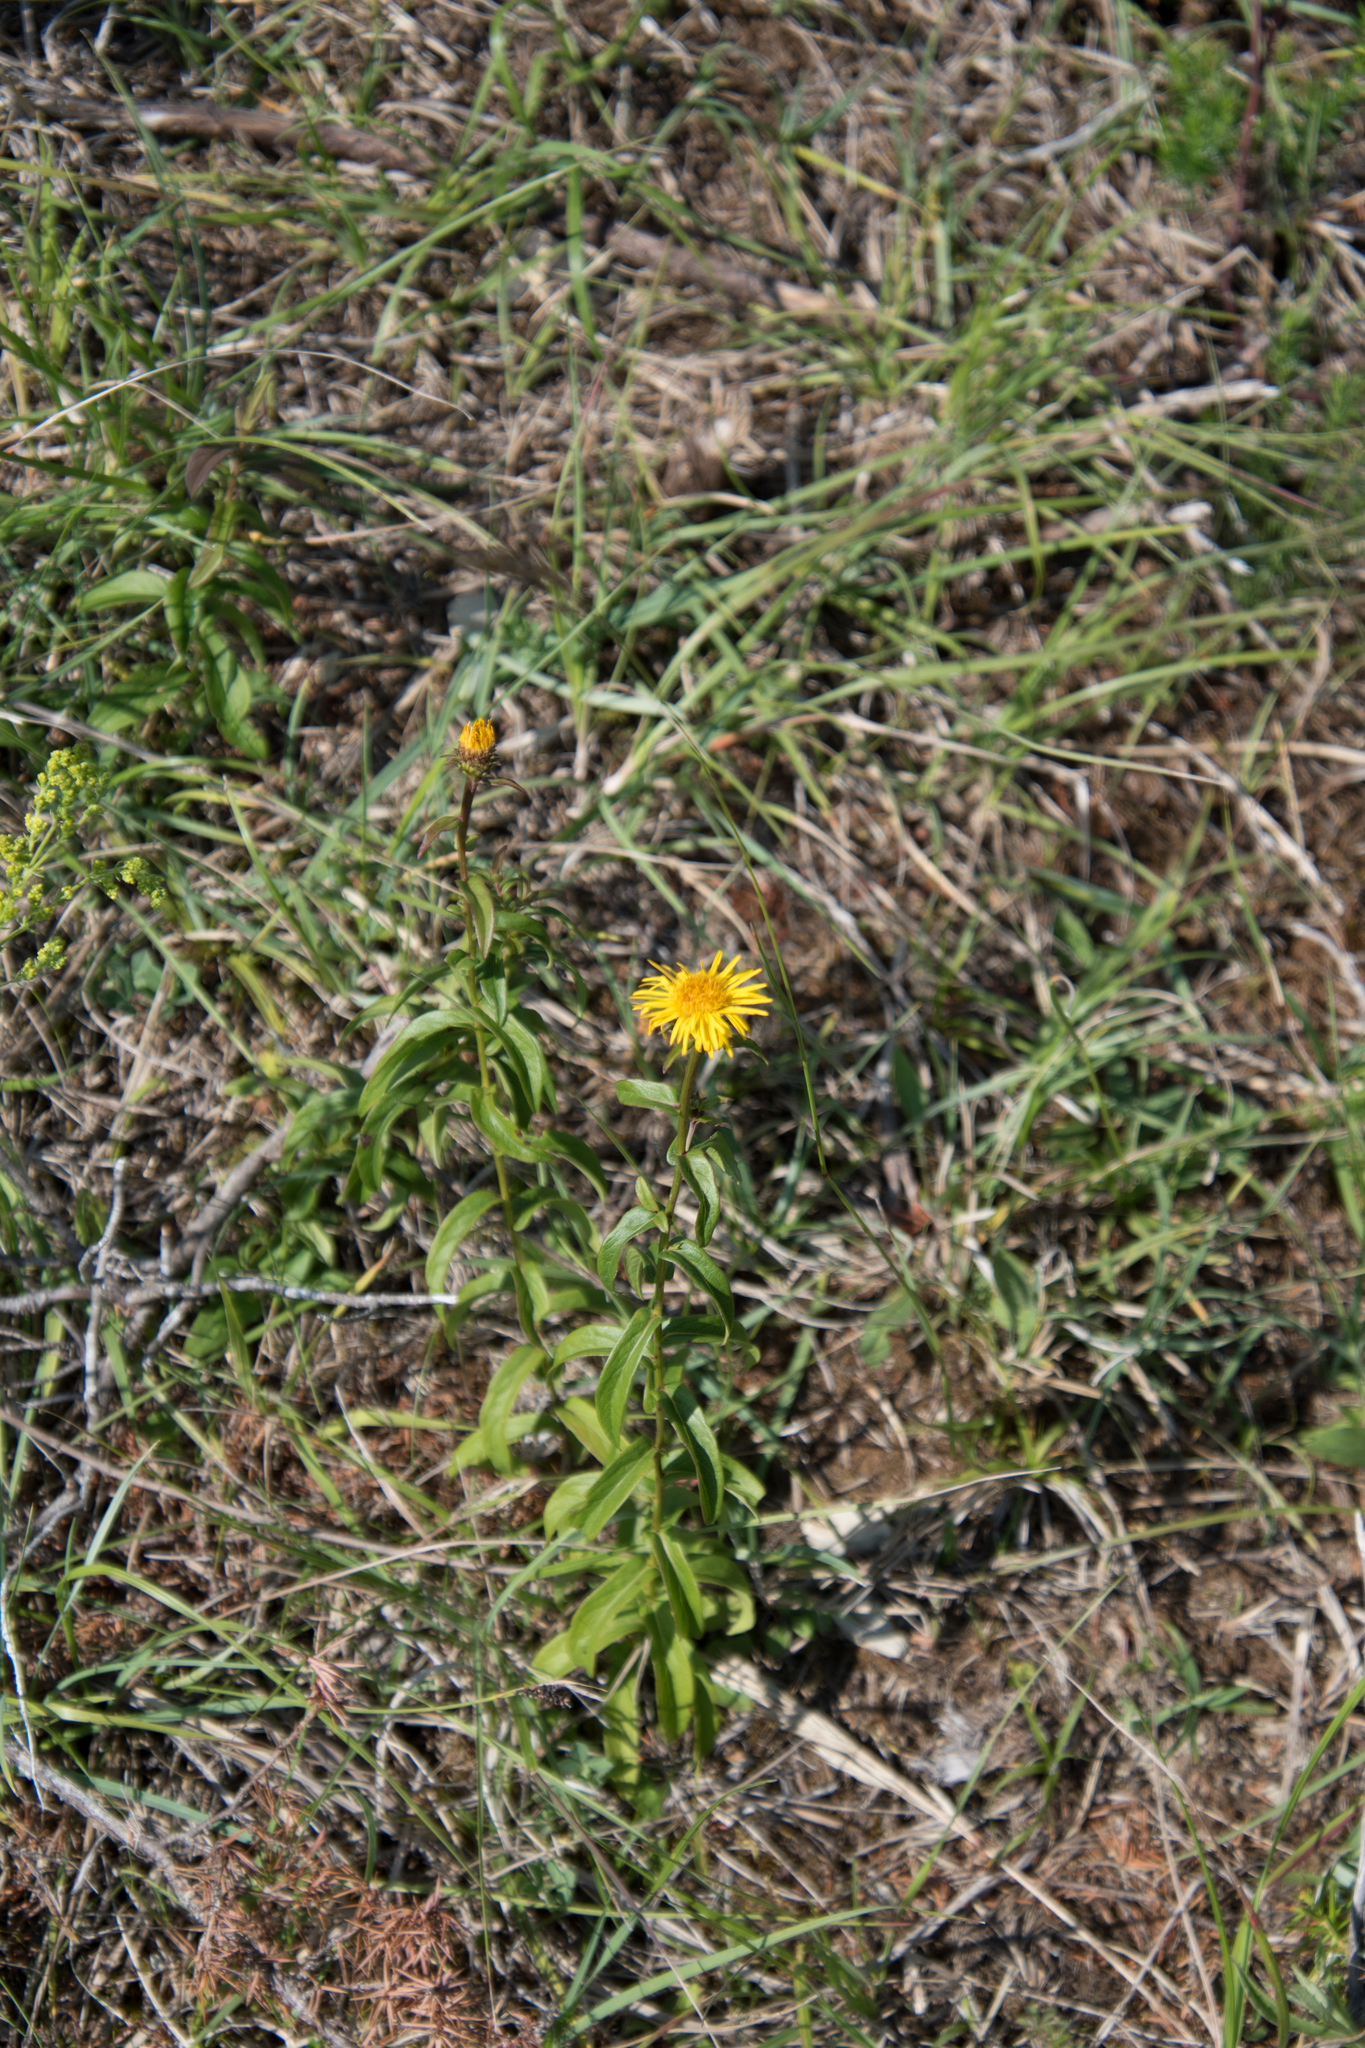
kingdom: Plantae
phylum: Tracheophyta
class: Magnoliopsida
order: Asterales
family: Asteraceae
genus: Pentanema
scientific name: Pentanema salicinum
